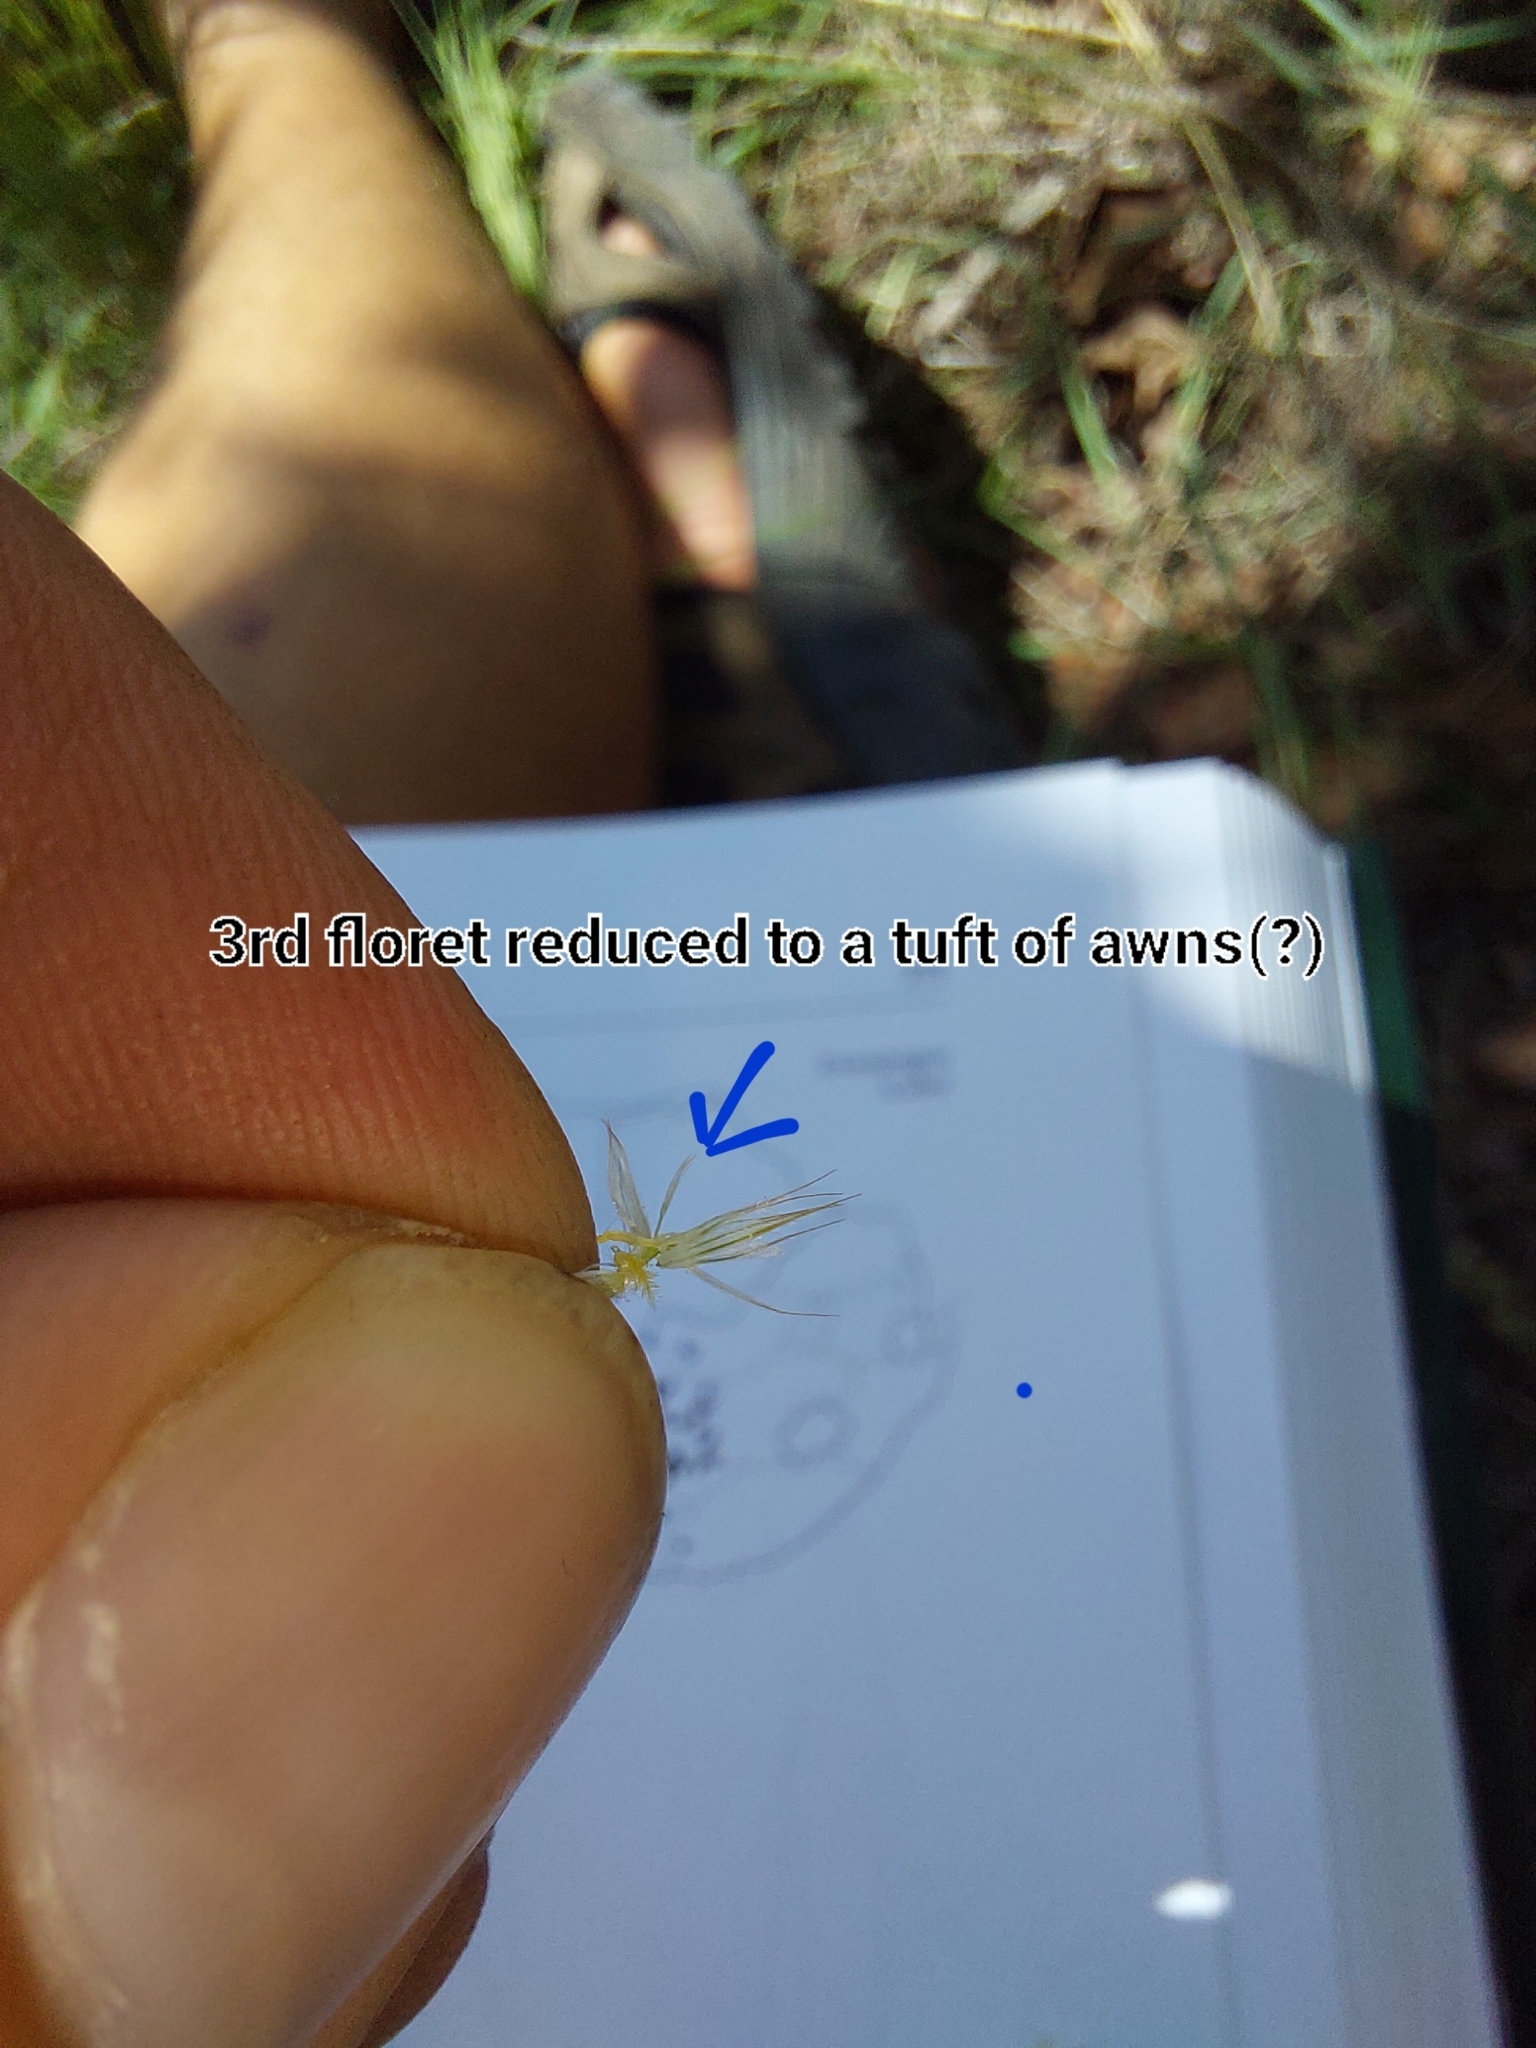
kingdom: Plantae
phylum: Tracheophyta
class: Liliopsida
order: Poales
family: Poaceae
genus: Enneapogon
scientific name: Enneapogon pretoriensis
